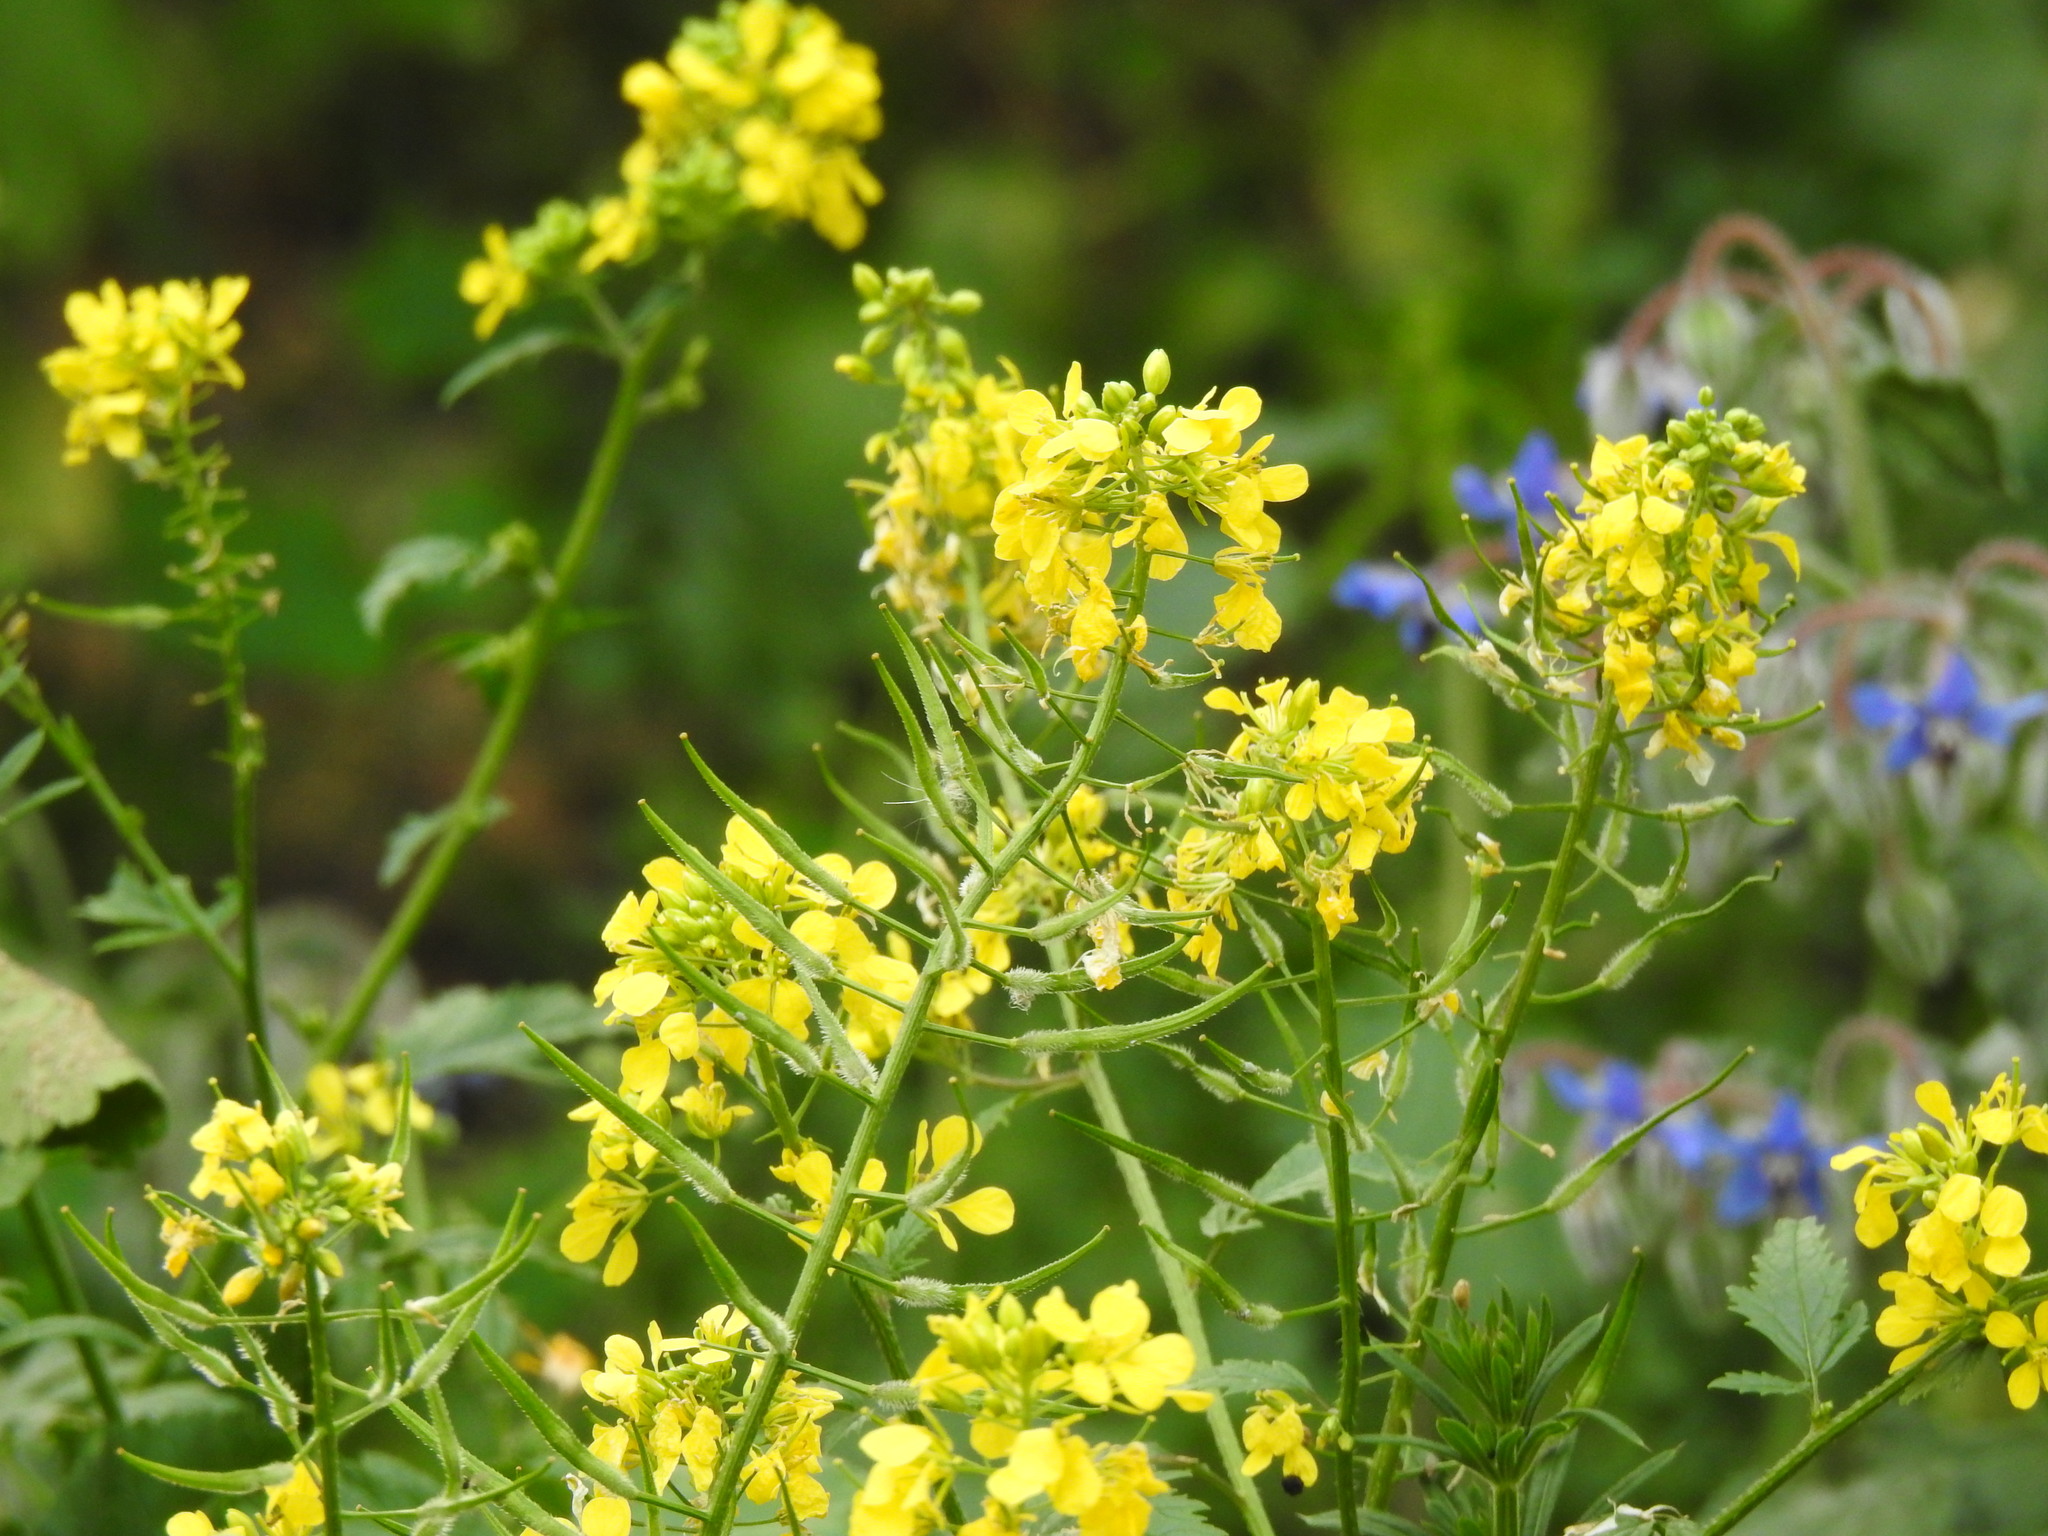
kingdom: Plantae
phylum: Tracheophyta
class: Magnoliopsida
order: Brassicales
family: Brassicaceae
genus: Sinapis
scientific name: Sinapis alba
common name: White mustard
